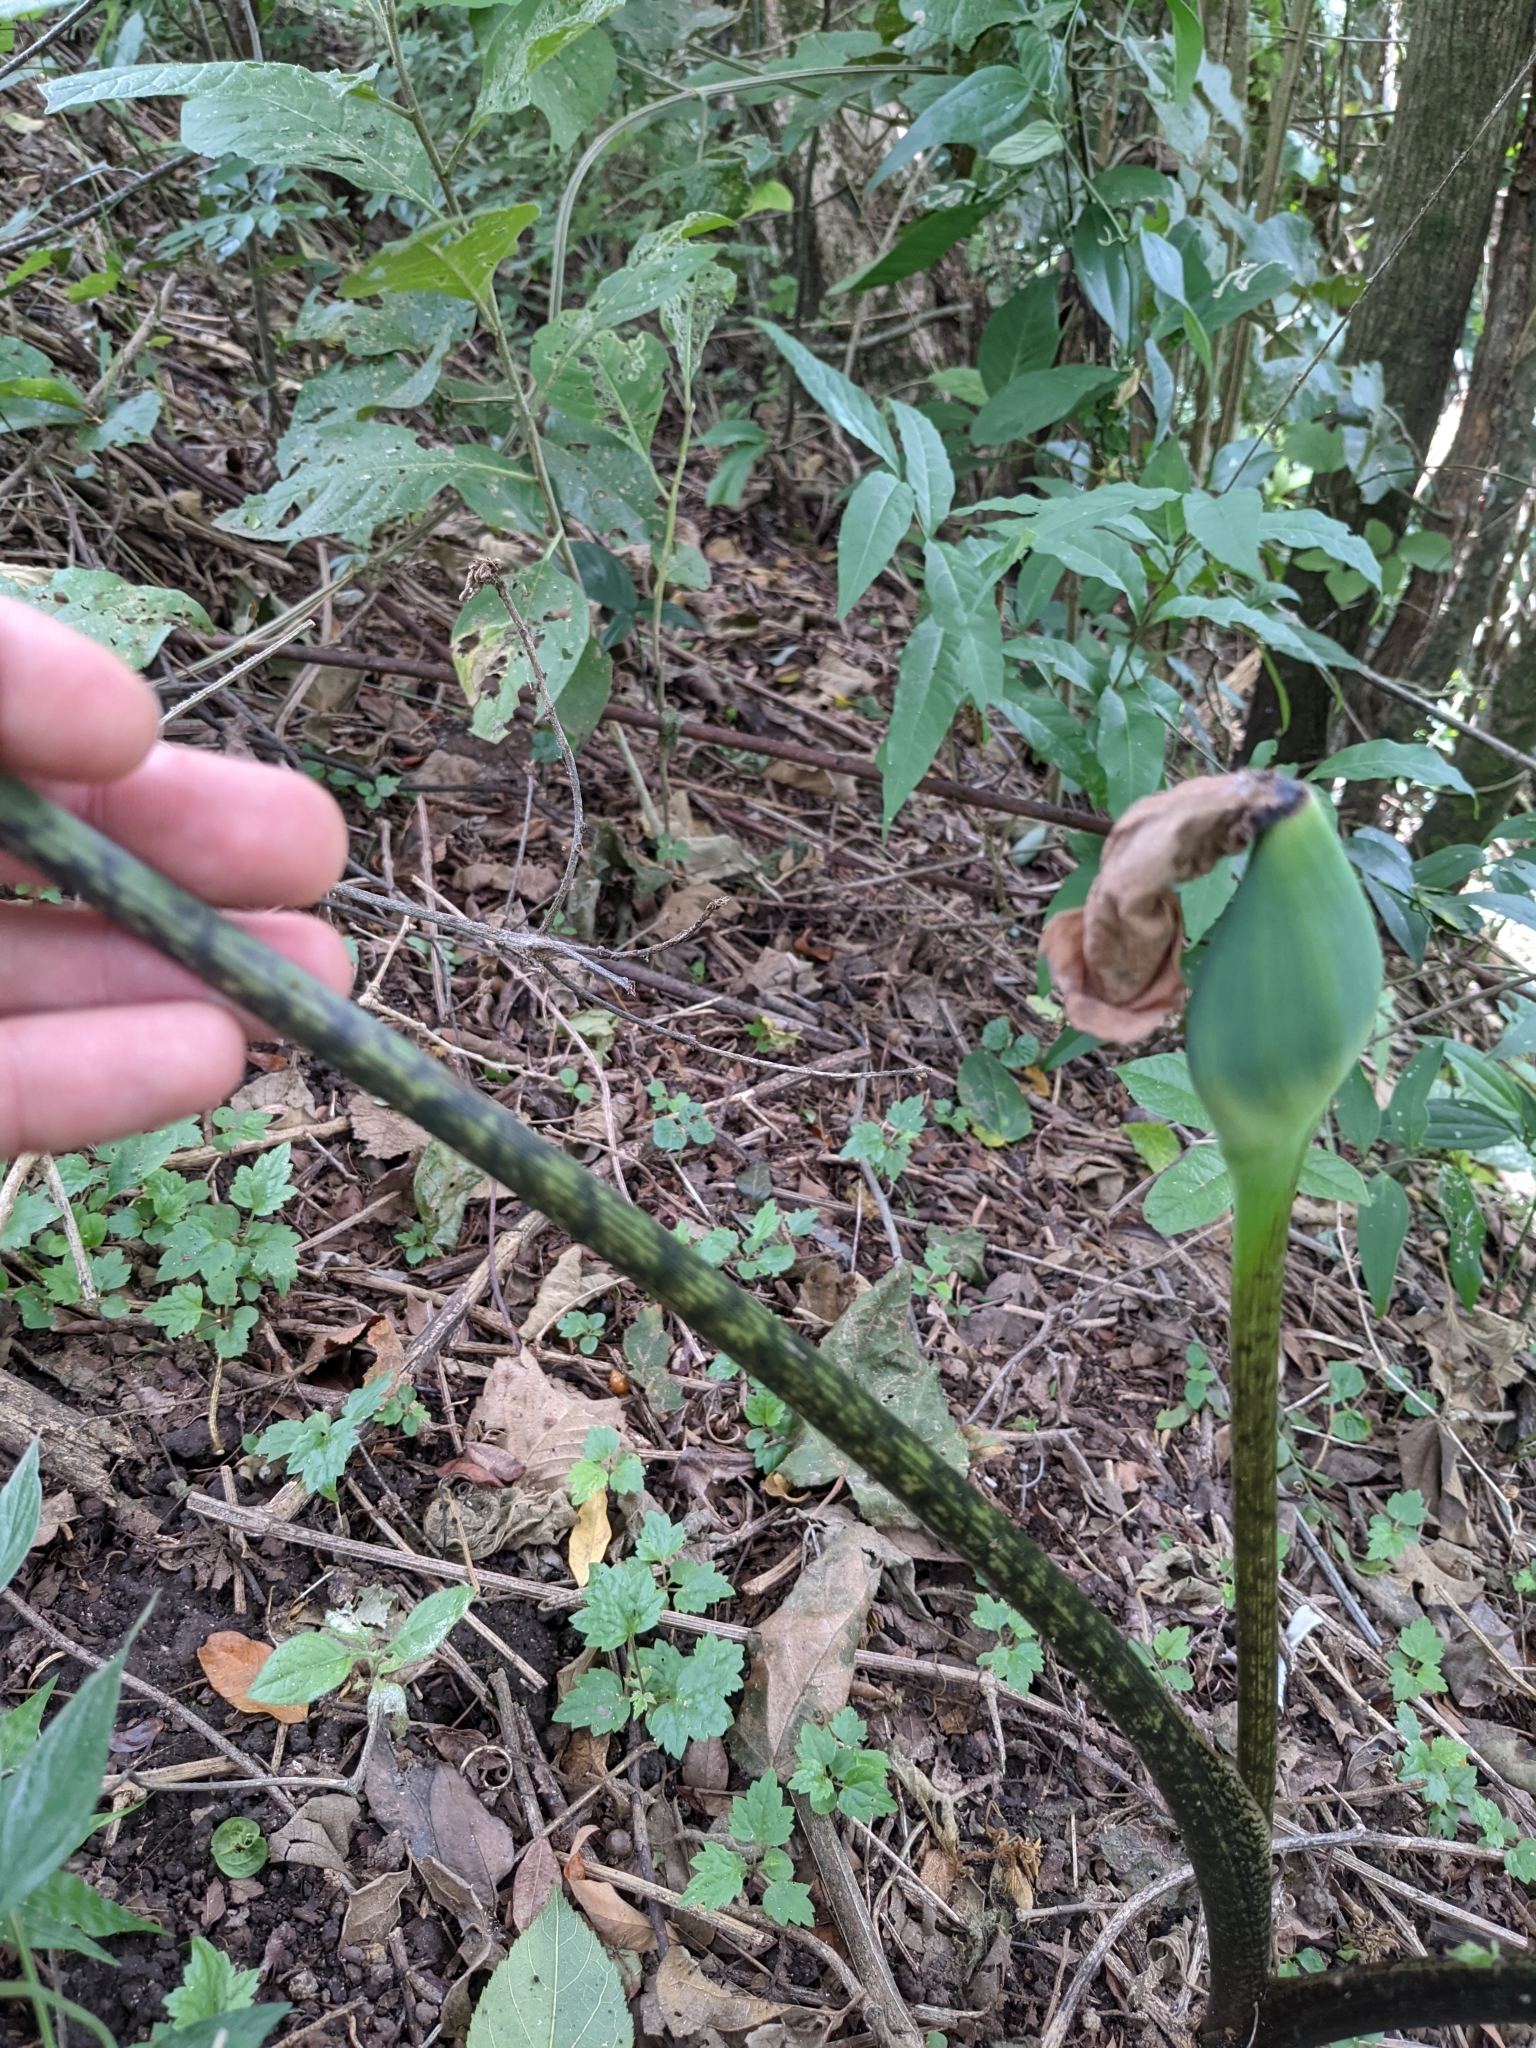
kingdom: Plantae
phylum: Tracheophyta
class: Liliopsida
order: Alismatales
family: Araceae
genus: Xanthosoma
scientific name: Xanthosoma wendlandii
